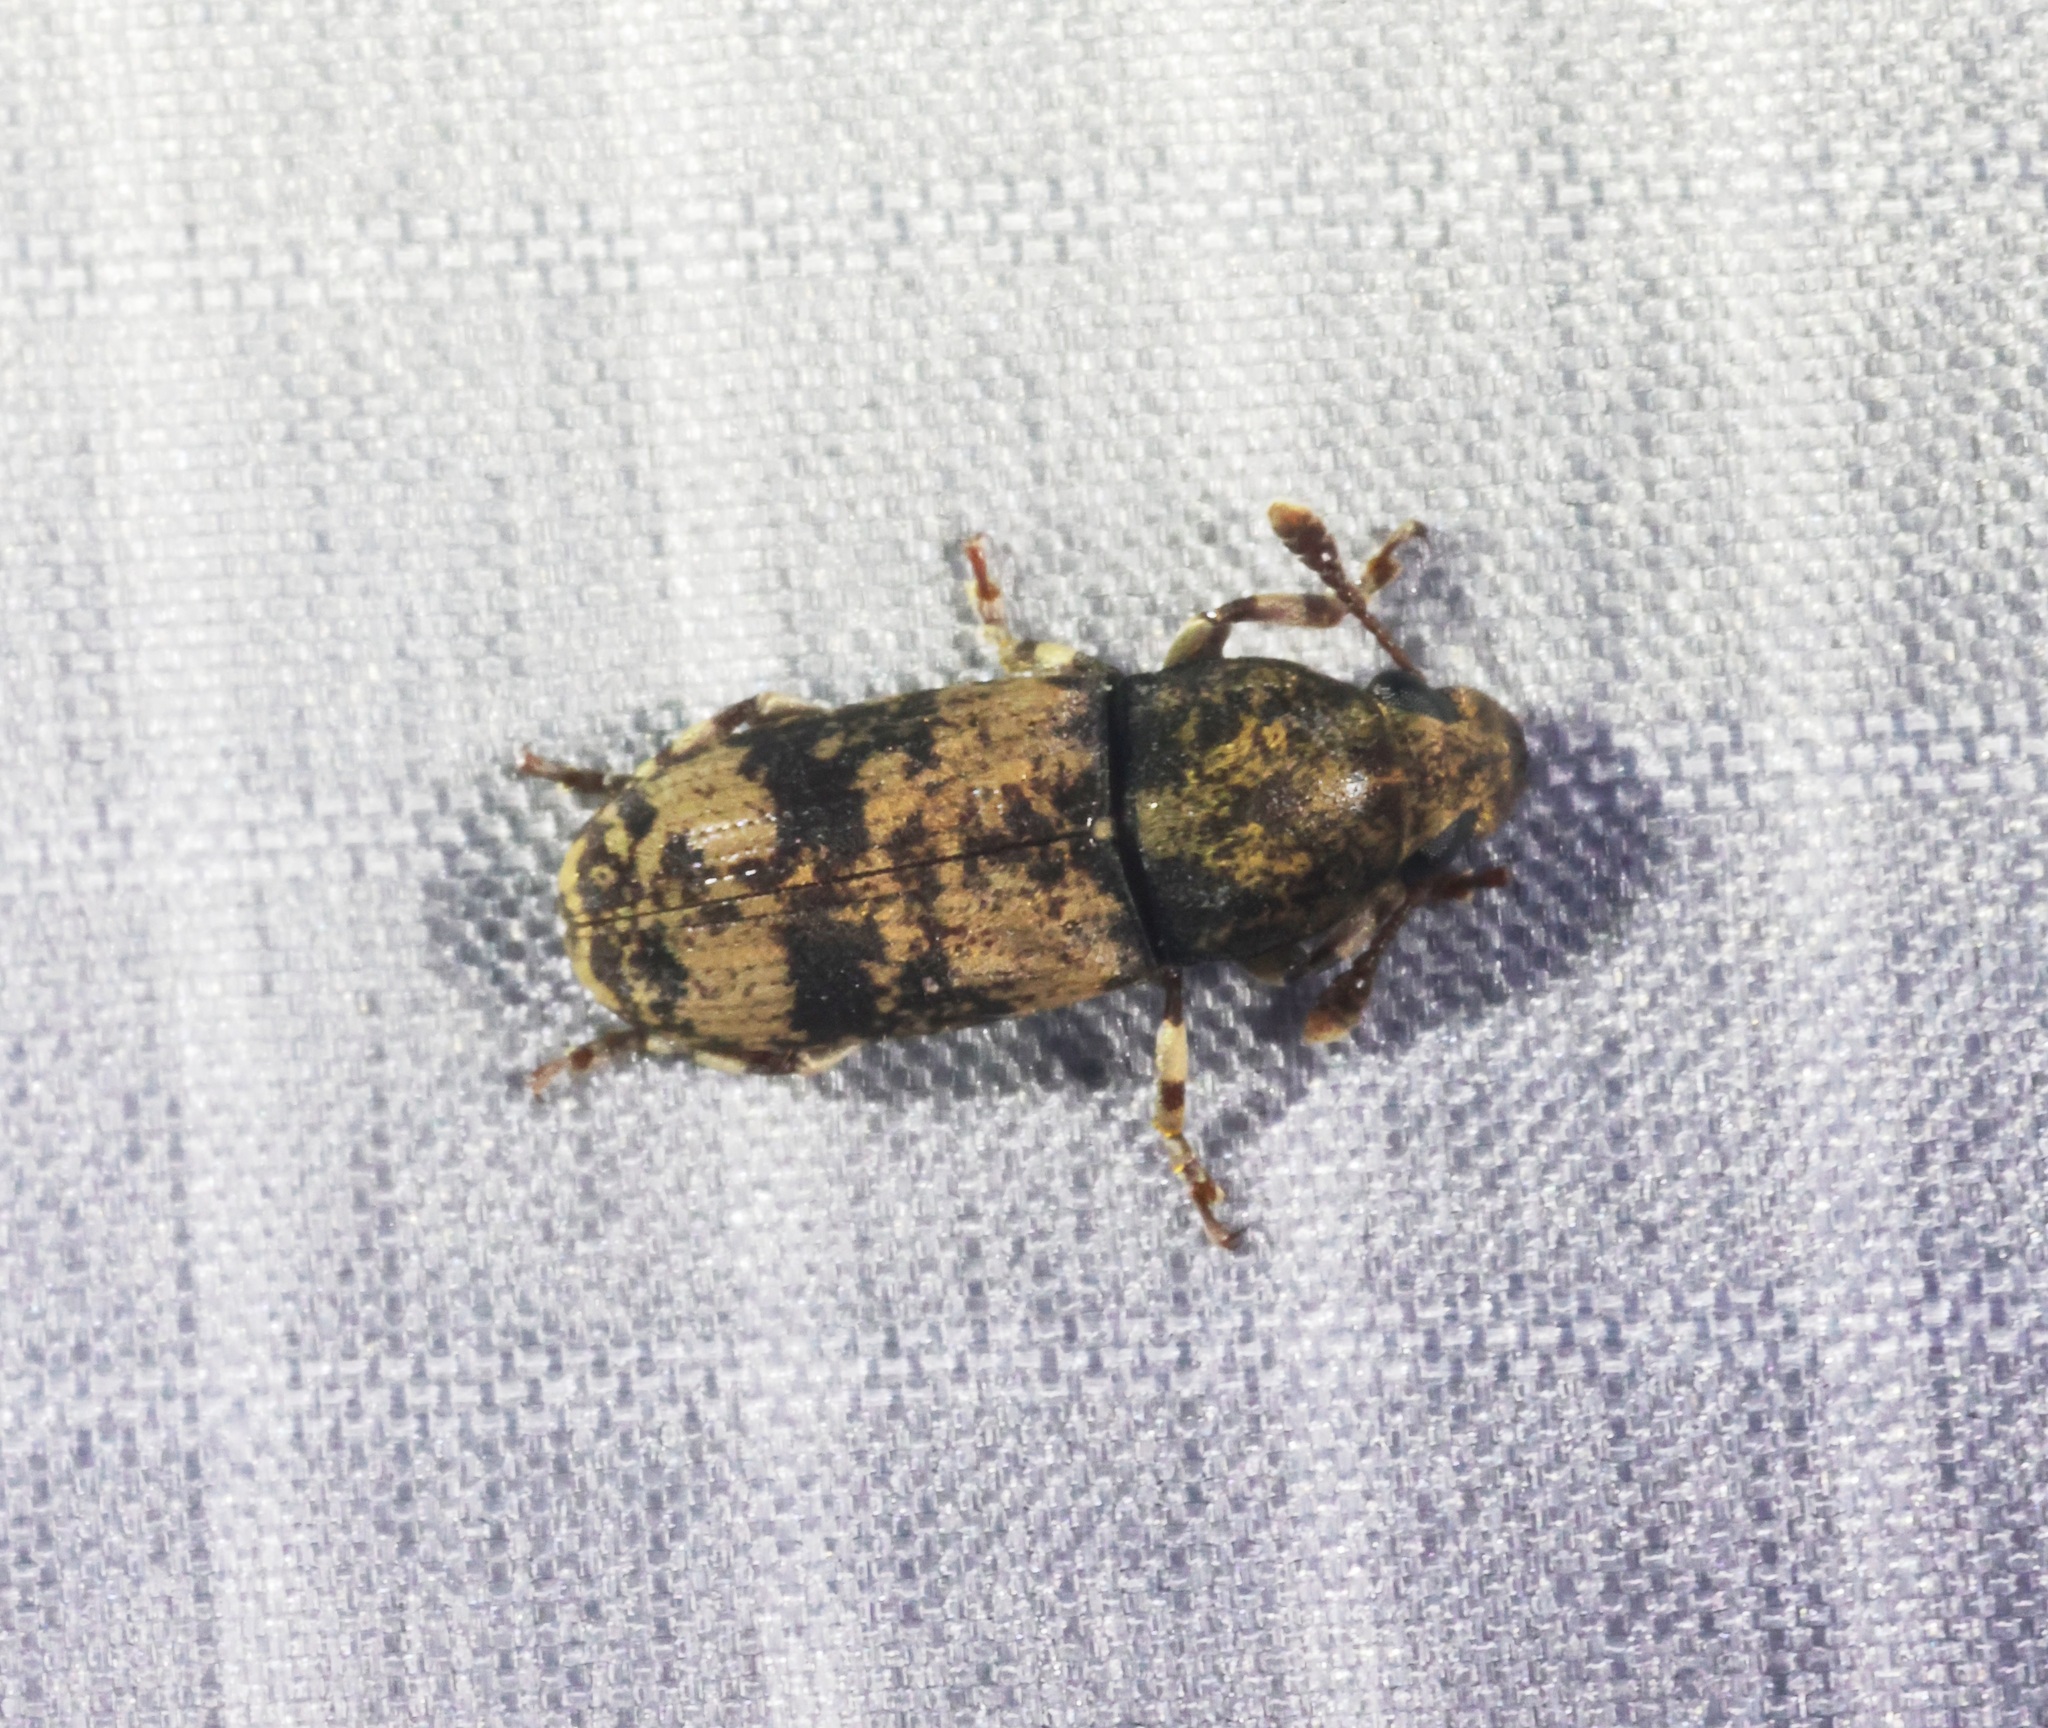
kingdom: Animalia
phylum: Arthropoda
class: Insecta
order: Coleoptera
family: Anthribidae
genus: Basitropis
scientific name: Basitropis nitidicutis
